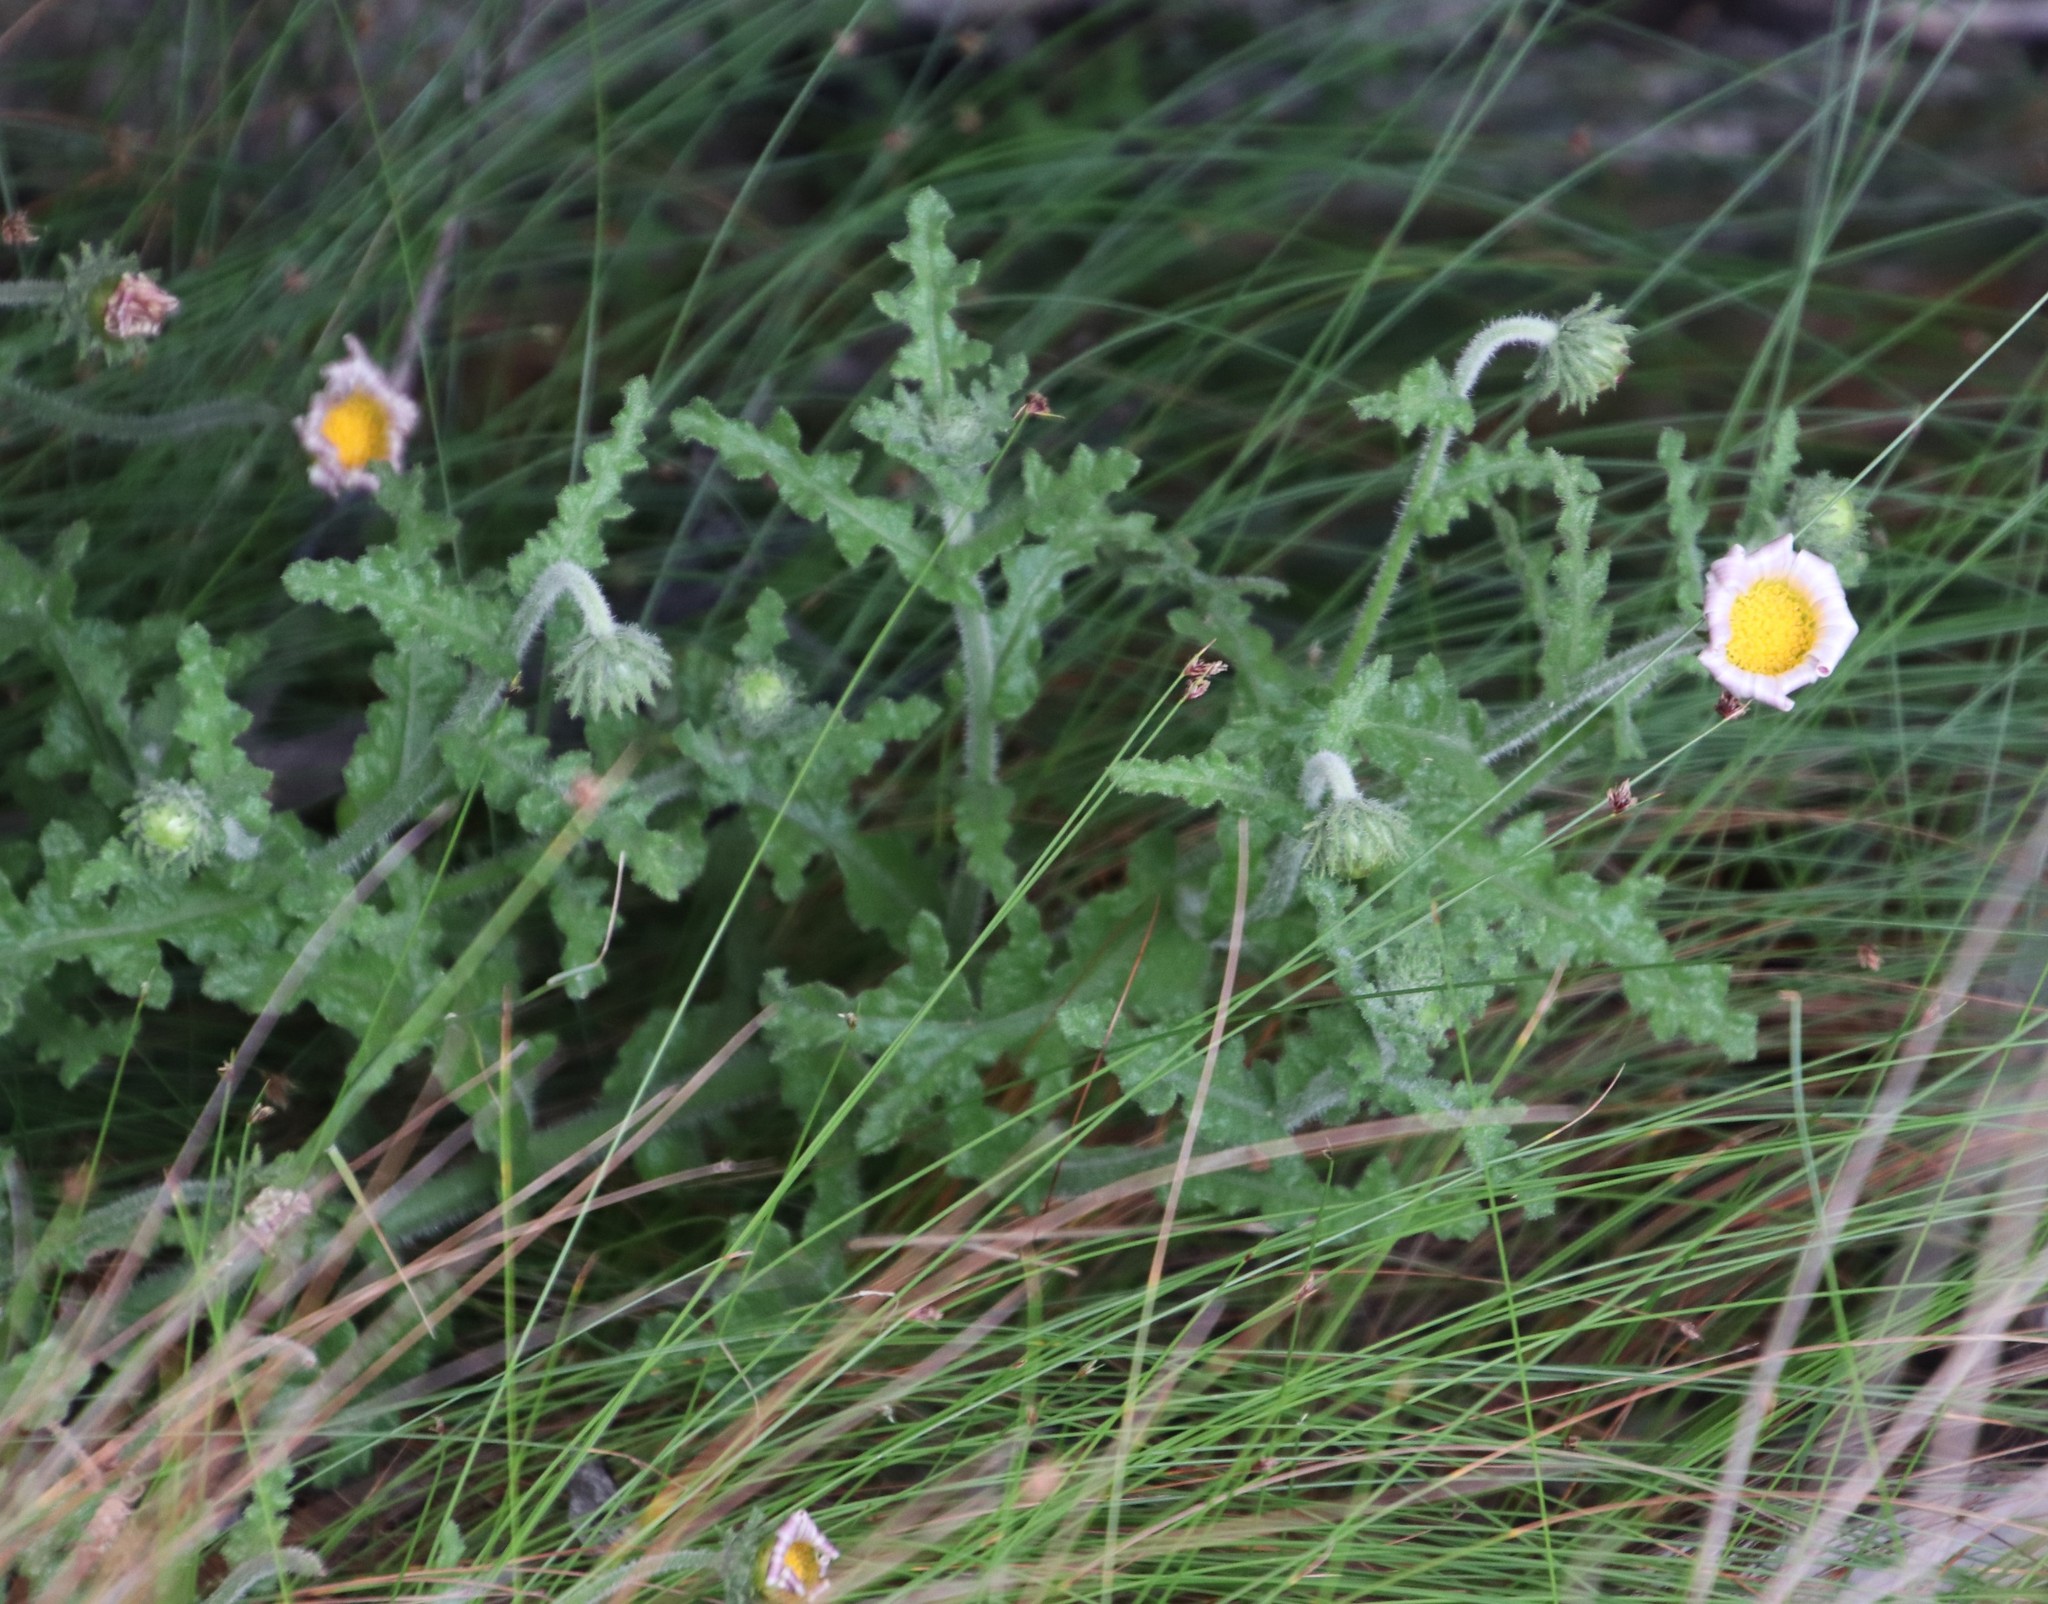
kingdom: Plantae
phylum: Tracheophyta
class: Magnoliopsida
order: Asterales
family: Asteraceae
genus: Arctotis
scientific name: Arctotis aspera
